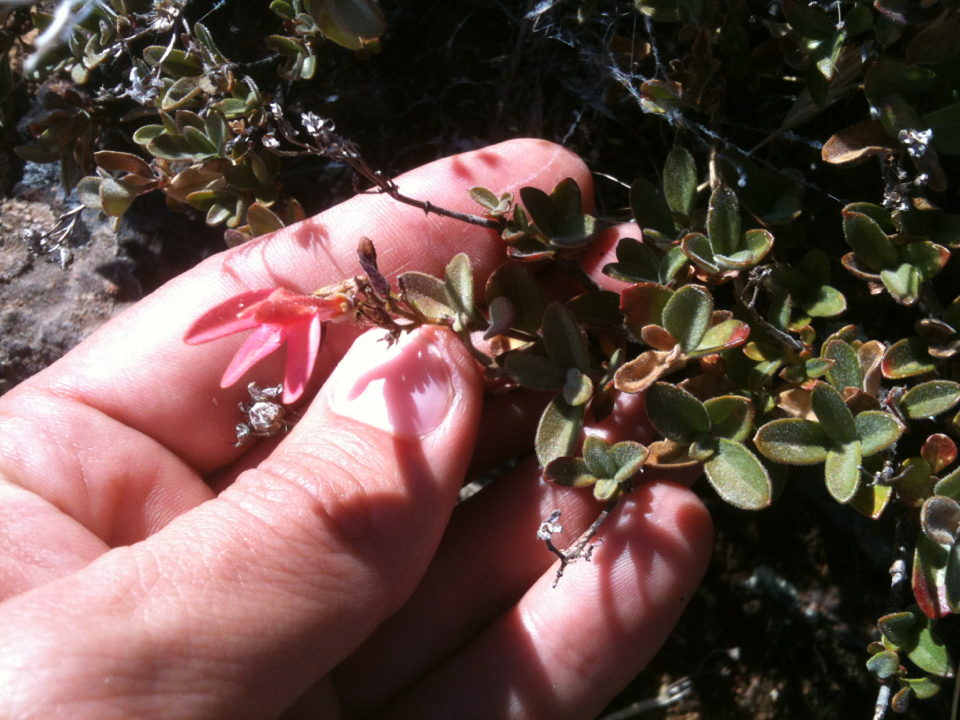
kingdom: Plantae
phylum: Tracheophyta
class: Magnoliopsida
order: Lamiales
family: Plantaginaceae
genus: Keckiella
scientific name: Keckiella corymbosa
